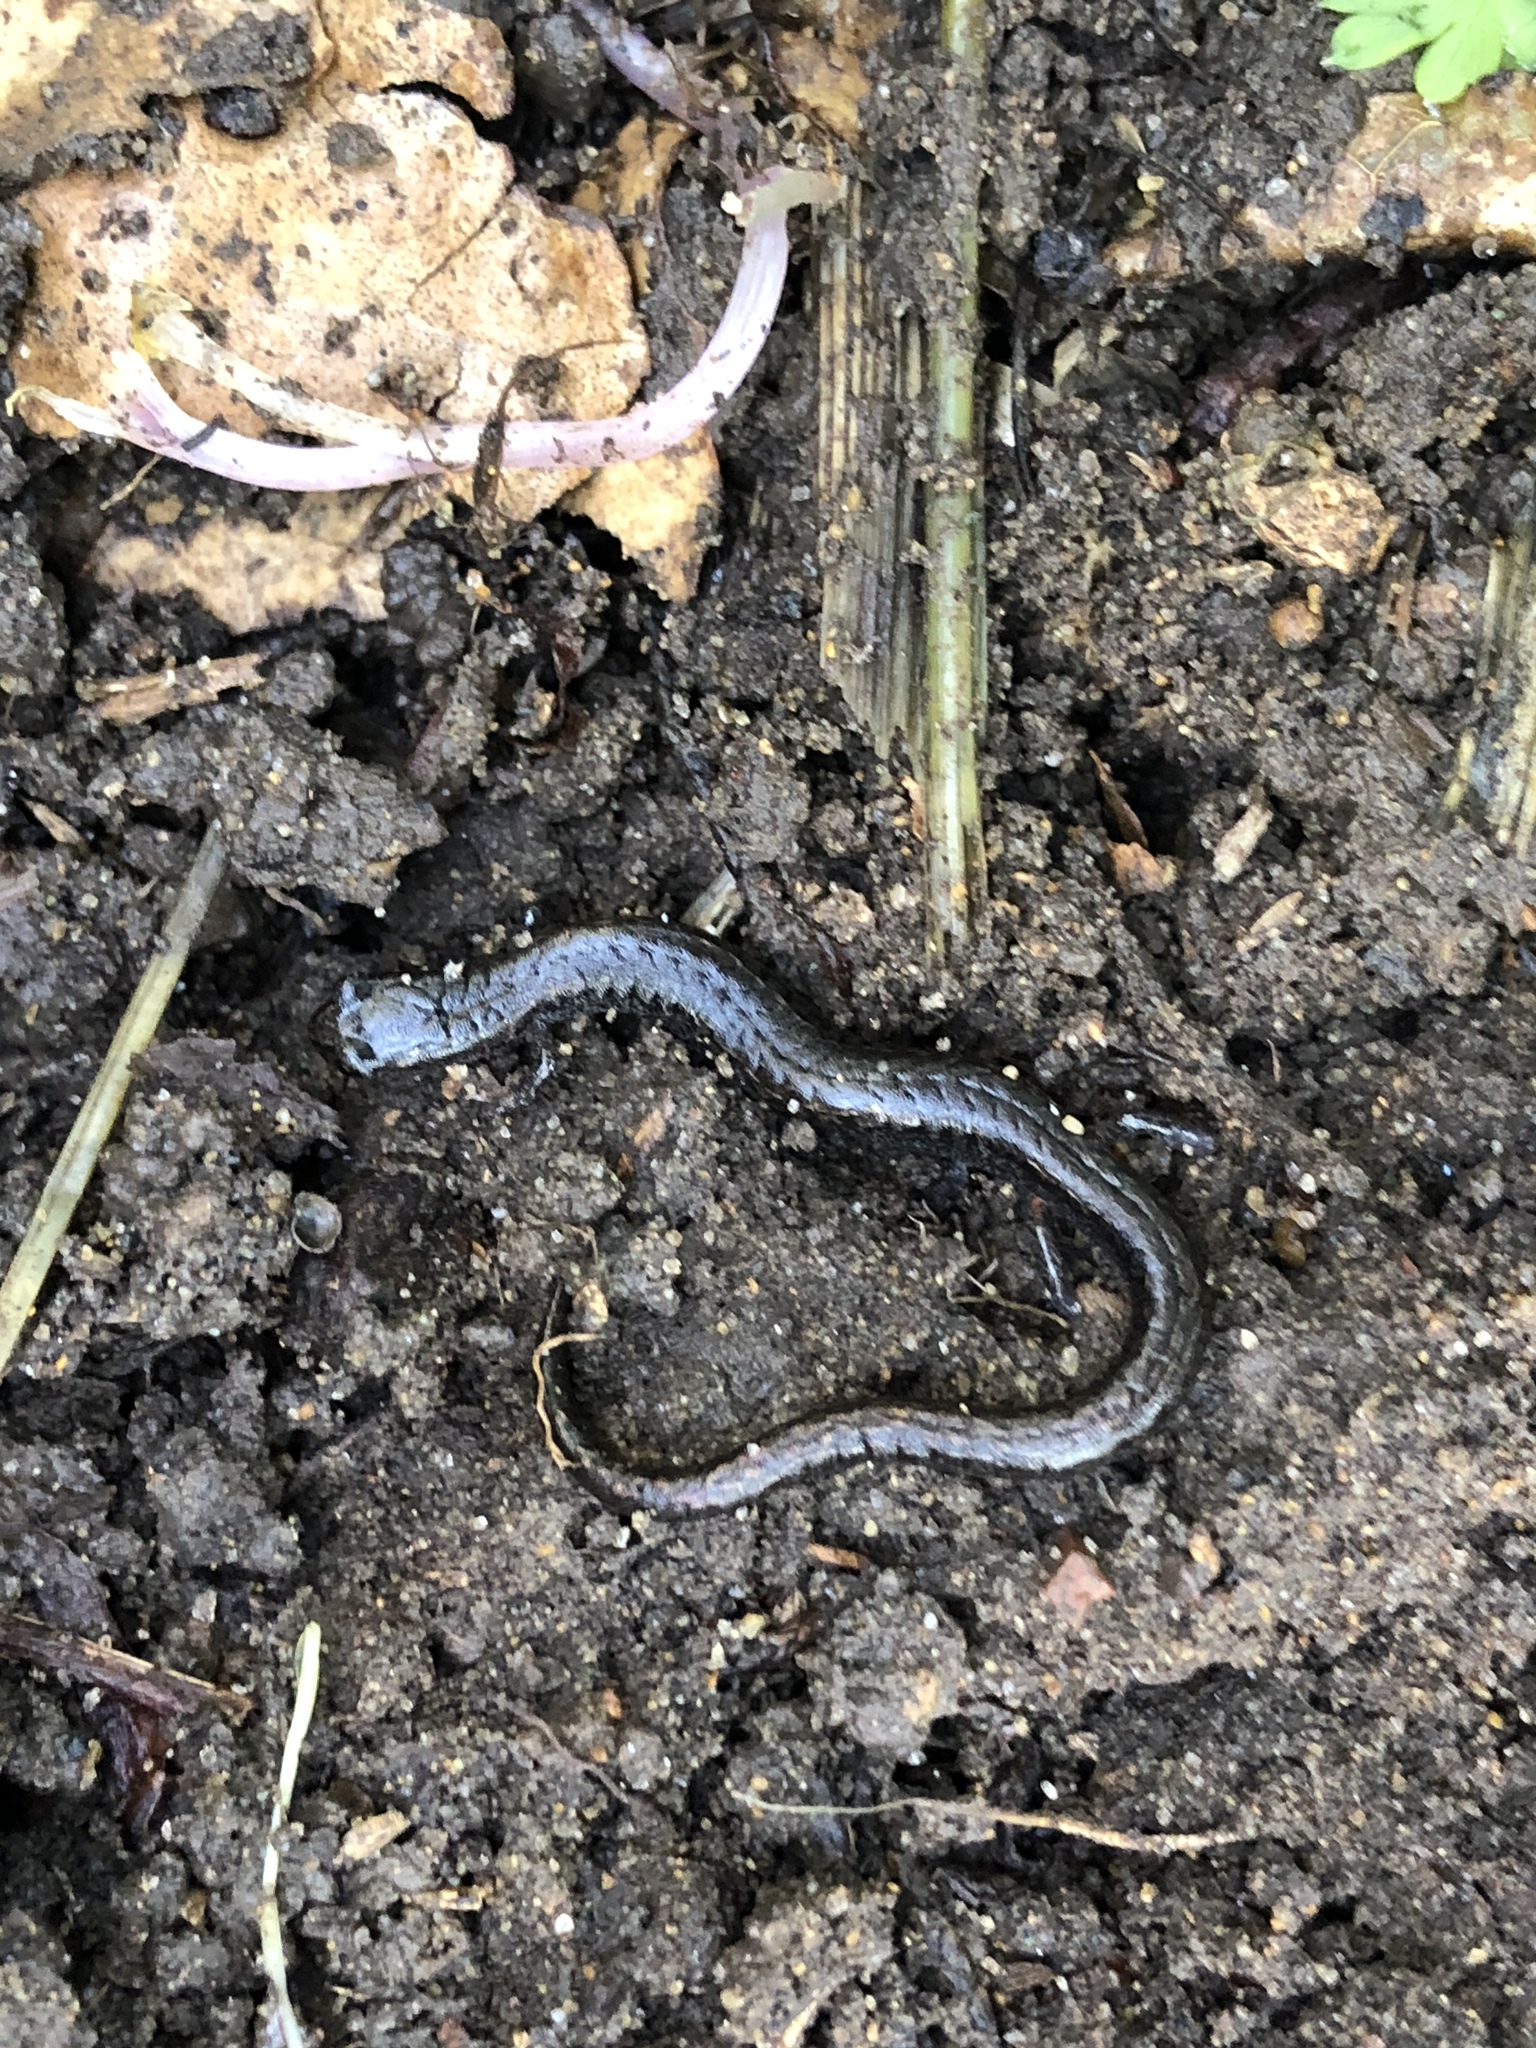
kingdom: Animalia
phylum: Chordata
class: Amphibia
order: Caudata
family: Plethodontidae
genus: Batrachoseps
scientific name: Batrachoseps attenuatus
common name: California slender salamander
